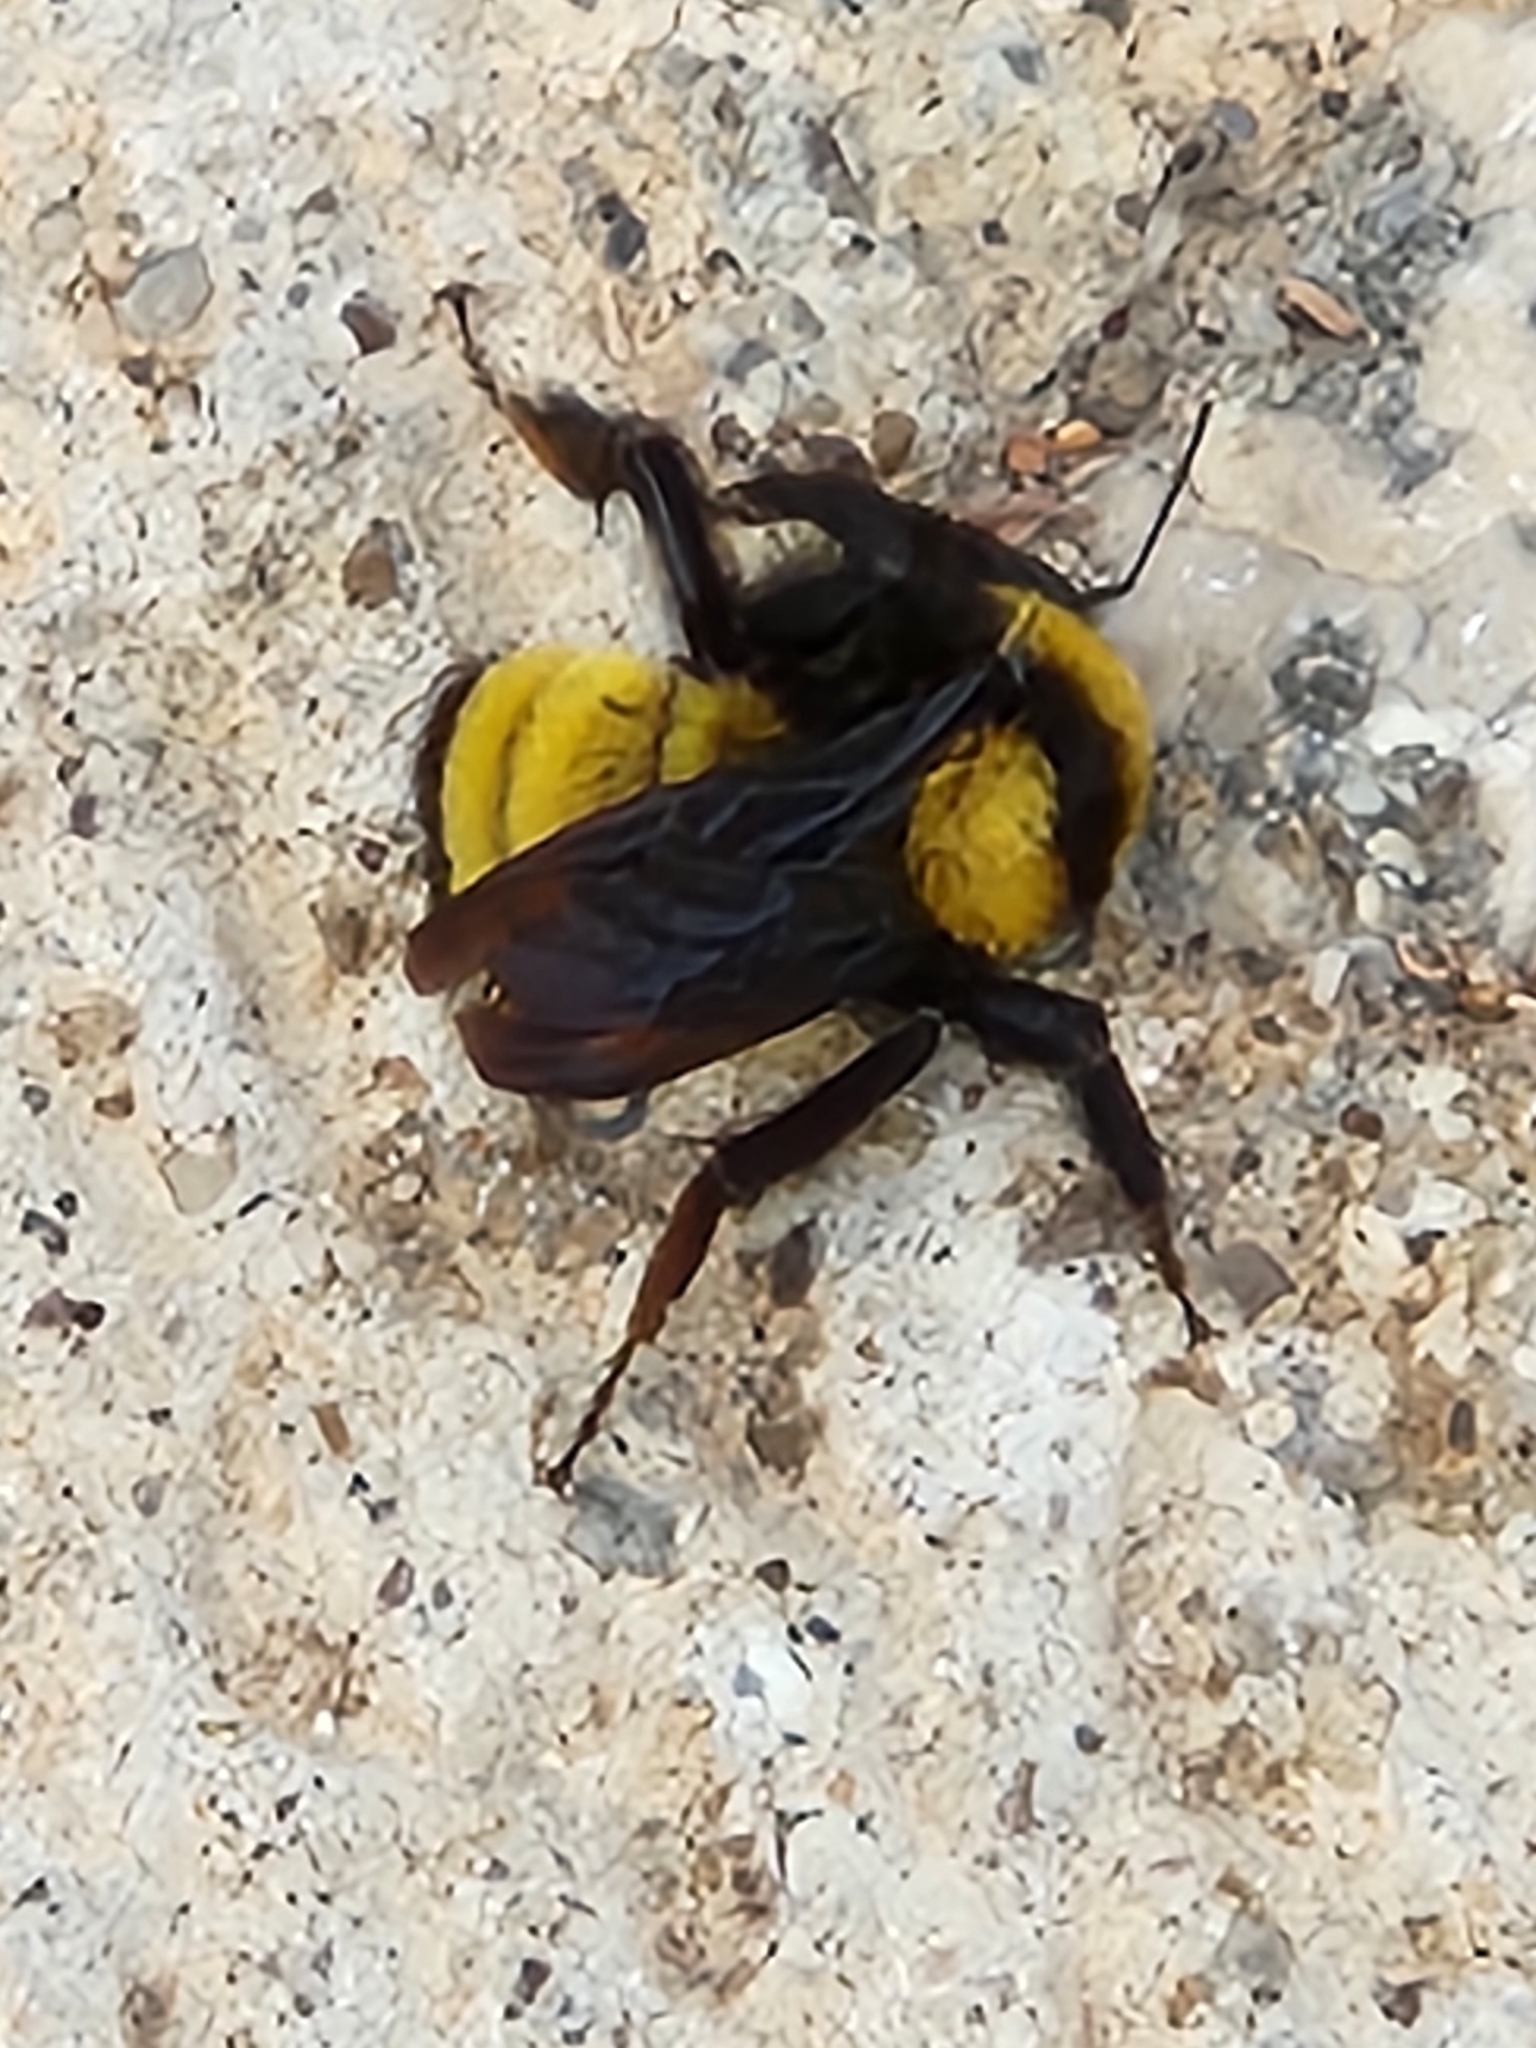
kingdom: Animalia
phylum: Arthropoda
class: Insecta
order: Hymenoptera
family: Apidae
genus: Bombus
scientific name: Bombus sonorus
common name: Sonoran bumble bee
